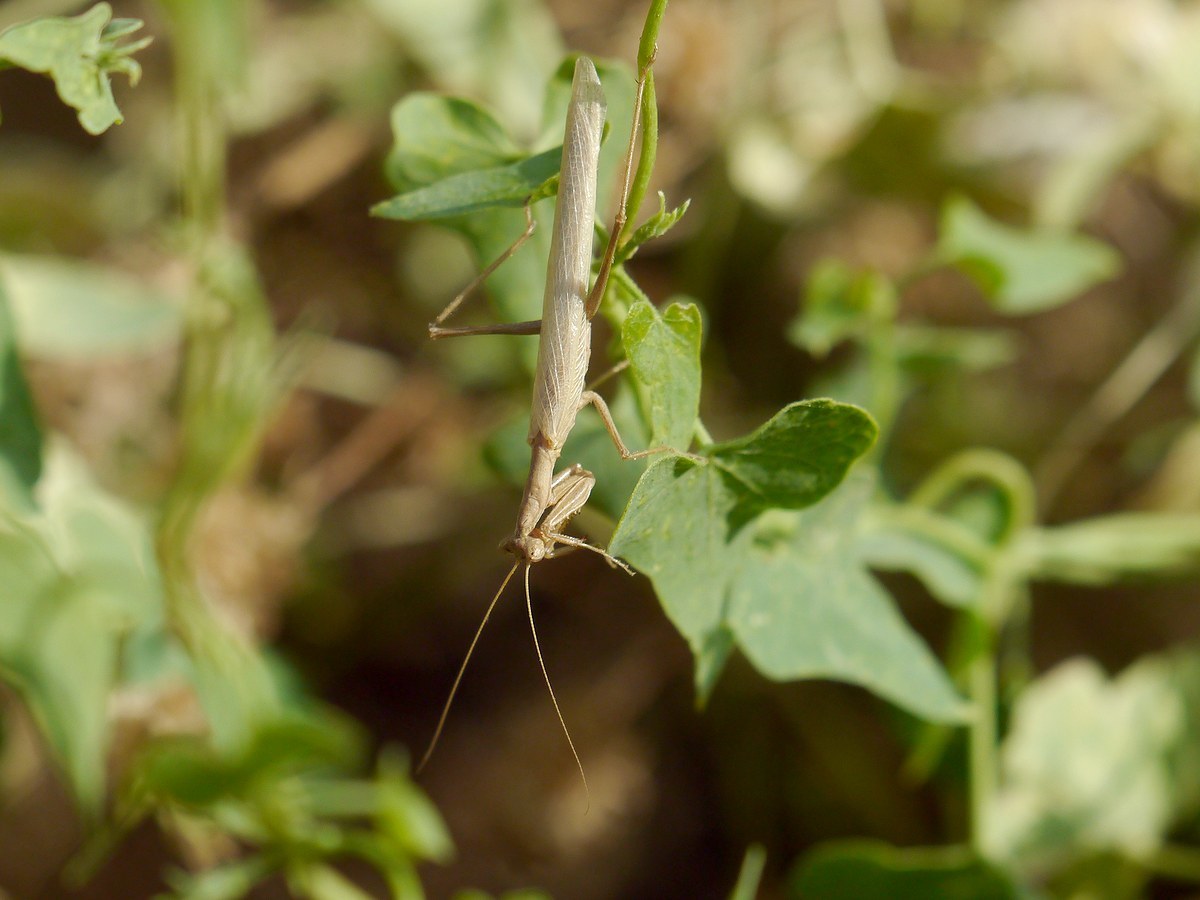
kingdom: Animalia
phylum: Arthropoda
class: Insecta
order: Mantodea
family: Amelidae
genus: Ameles
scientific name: Ameles heldreichi
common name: Heldreich's dwarf mantis
